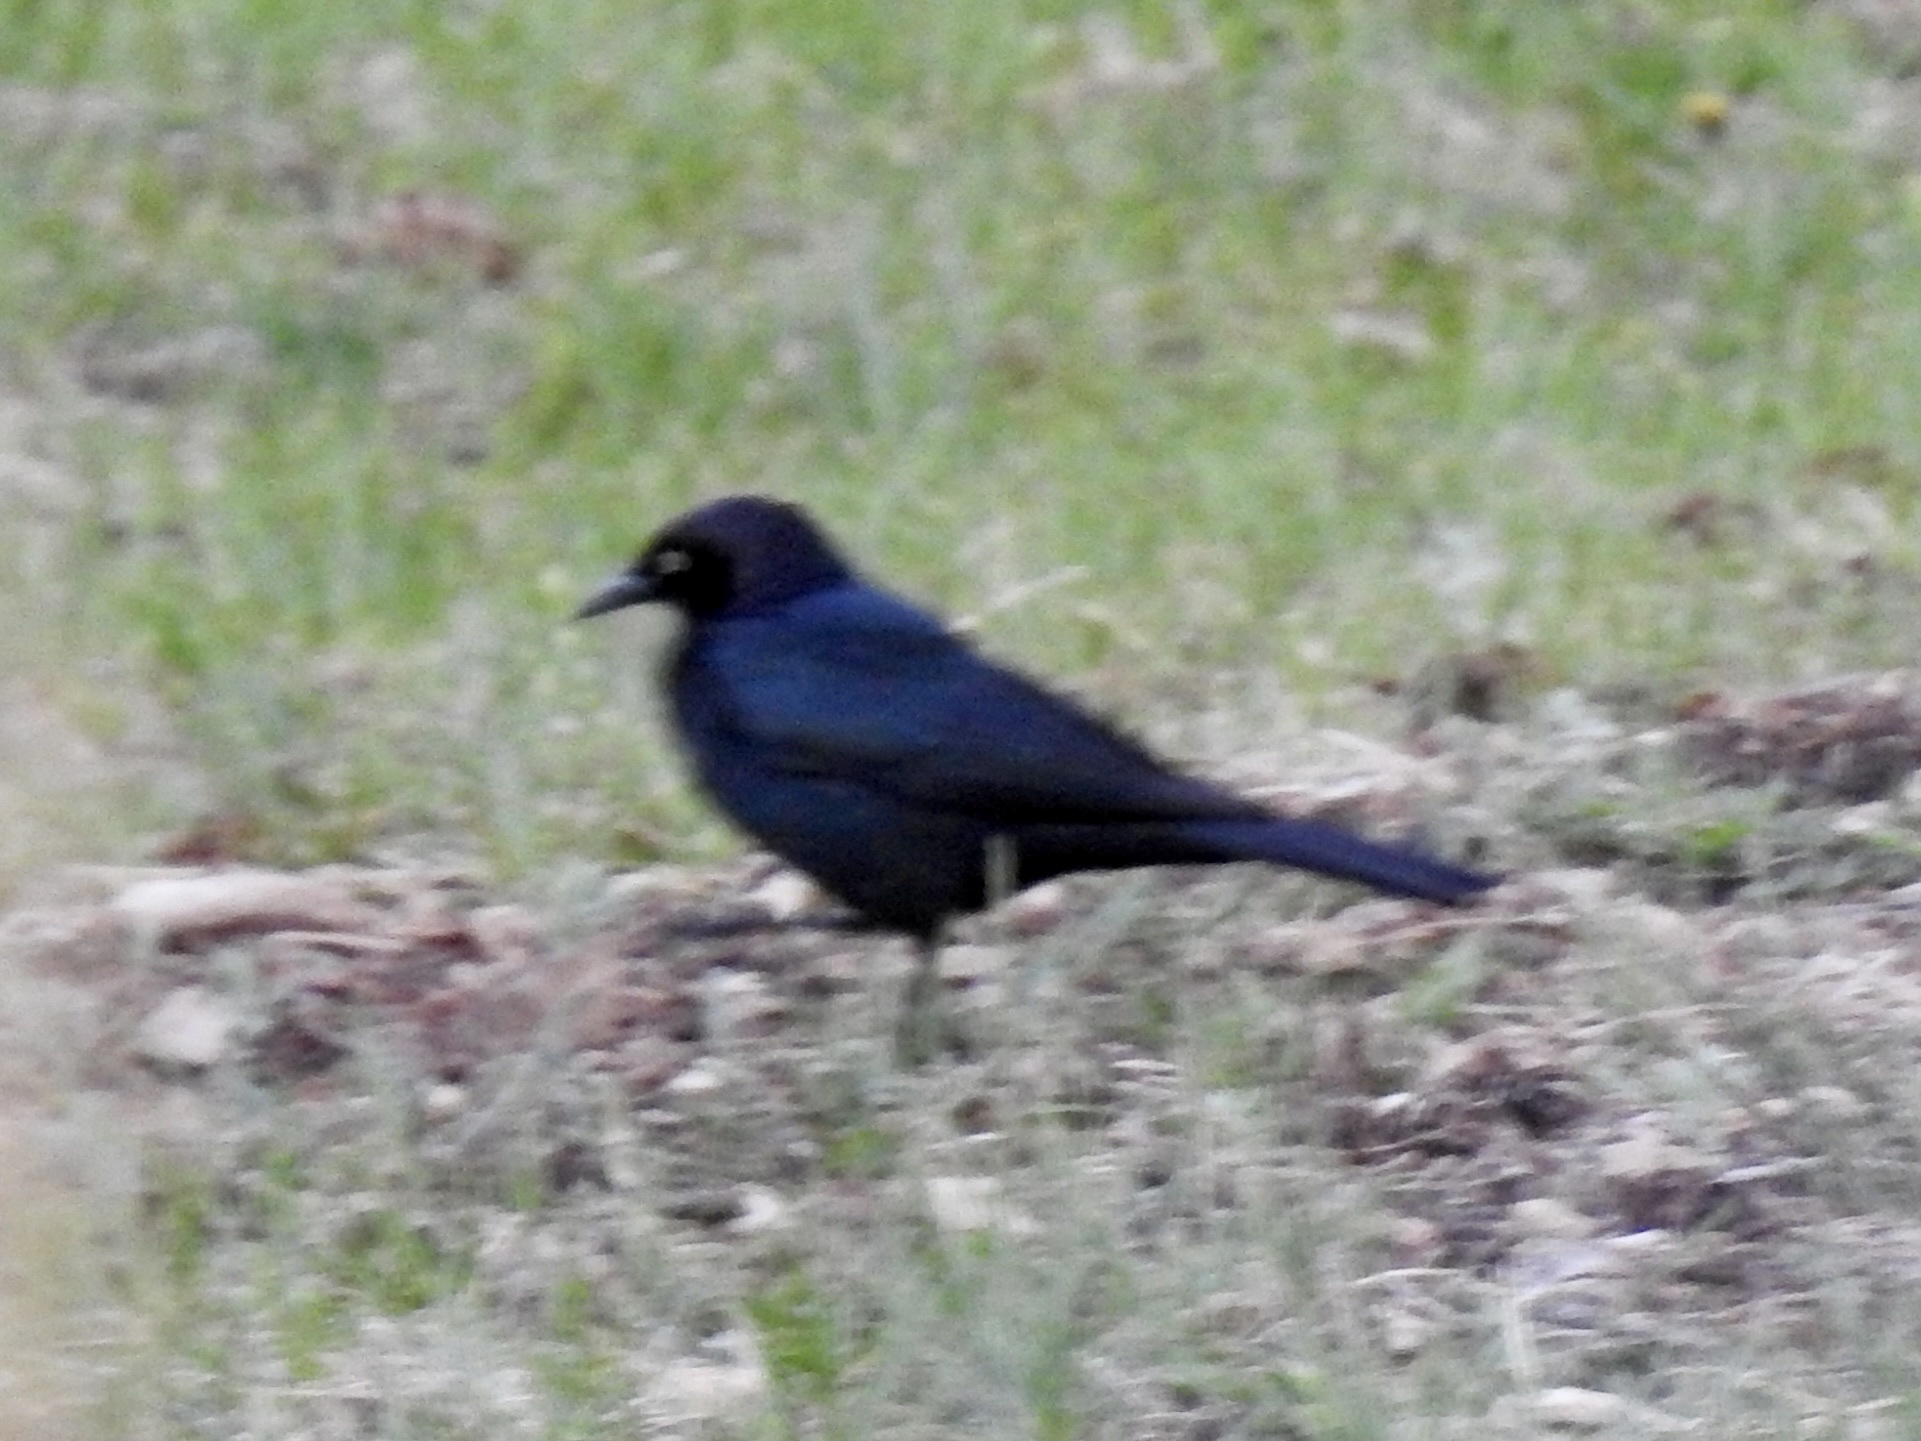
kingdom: Animalia
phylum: Chordata
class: Aves
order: Passeriformes
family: Icteridae
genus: Euphagus
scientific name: Euphagus cyanocephalus
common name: Brewer's blackbird
